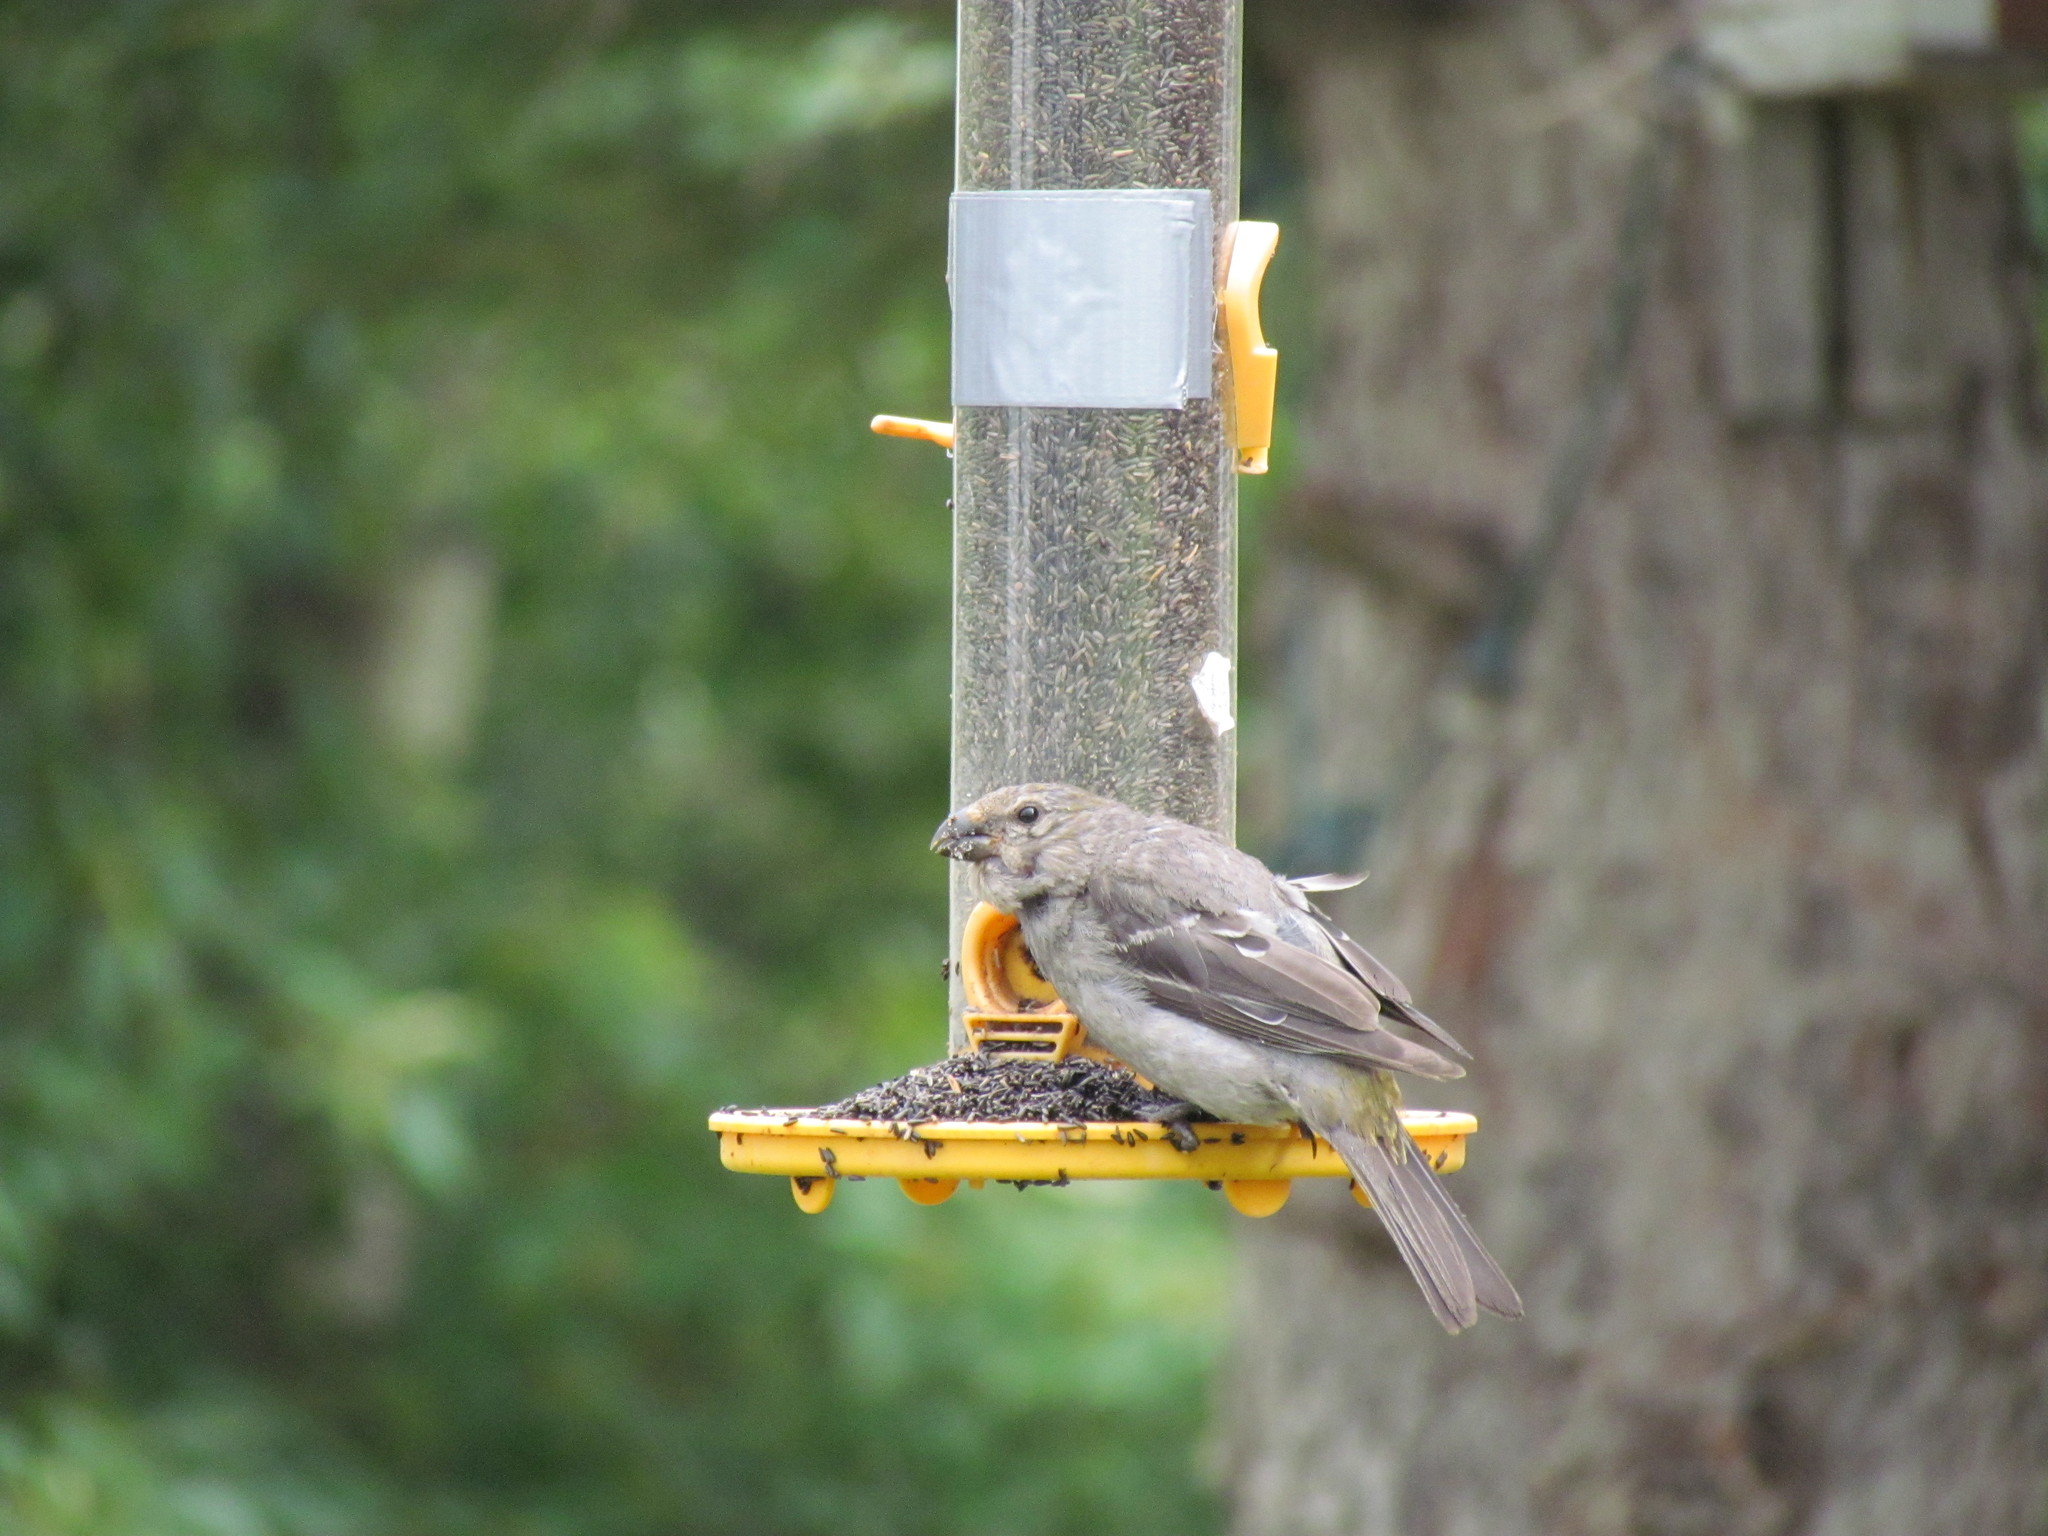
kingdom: Animalia
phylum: Chordata
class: Aves
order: Passeriformes
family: Fringillidae
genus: Pinicola
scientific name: Pinicola enucleator
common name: Pine grosbeak
